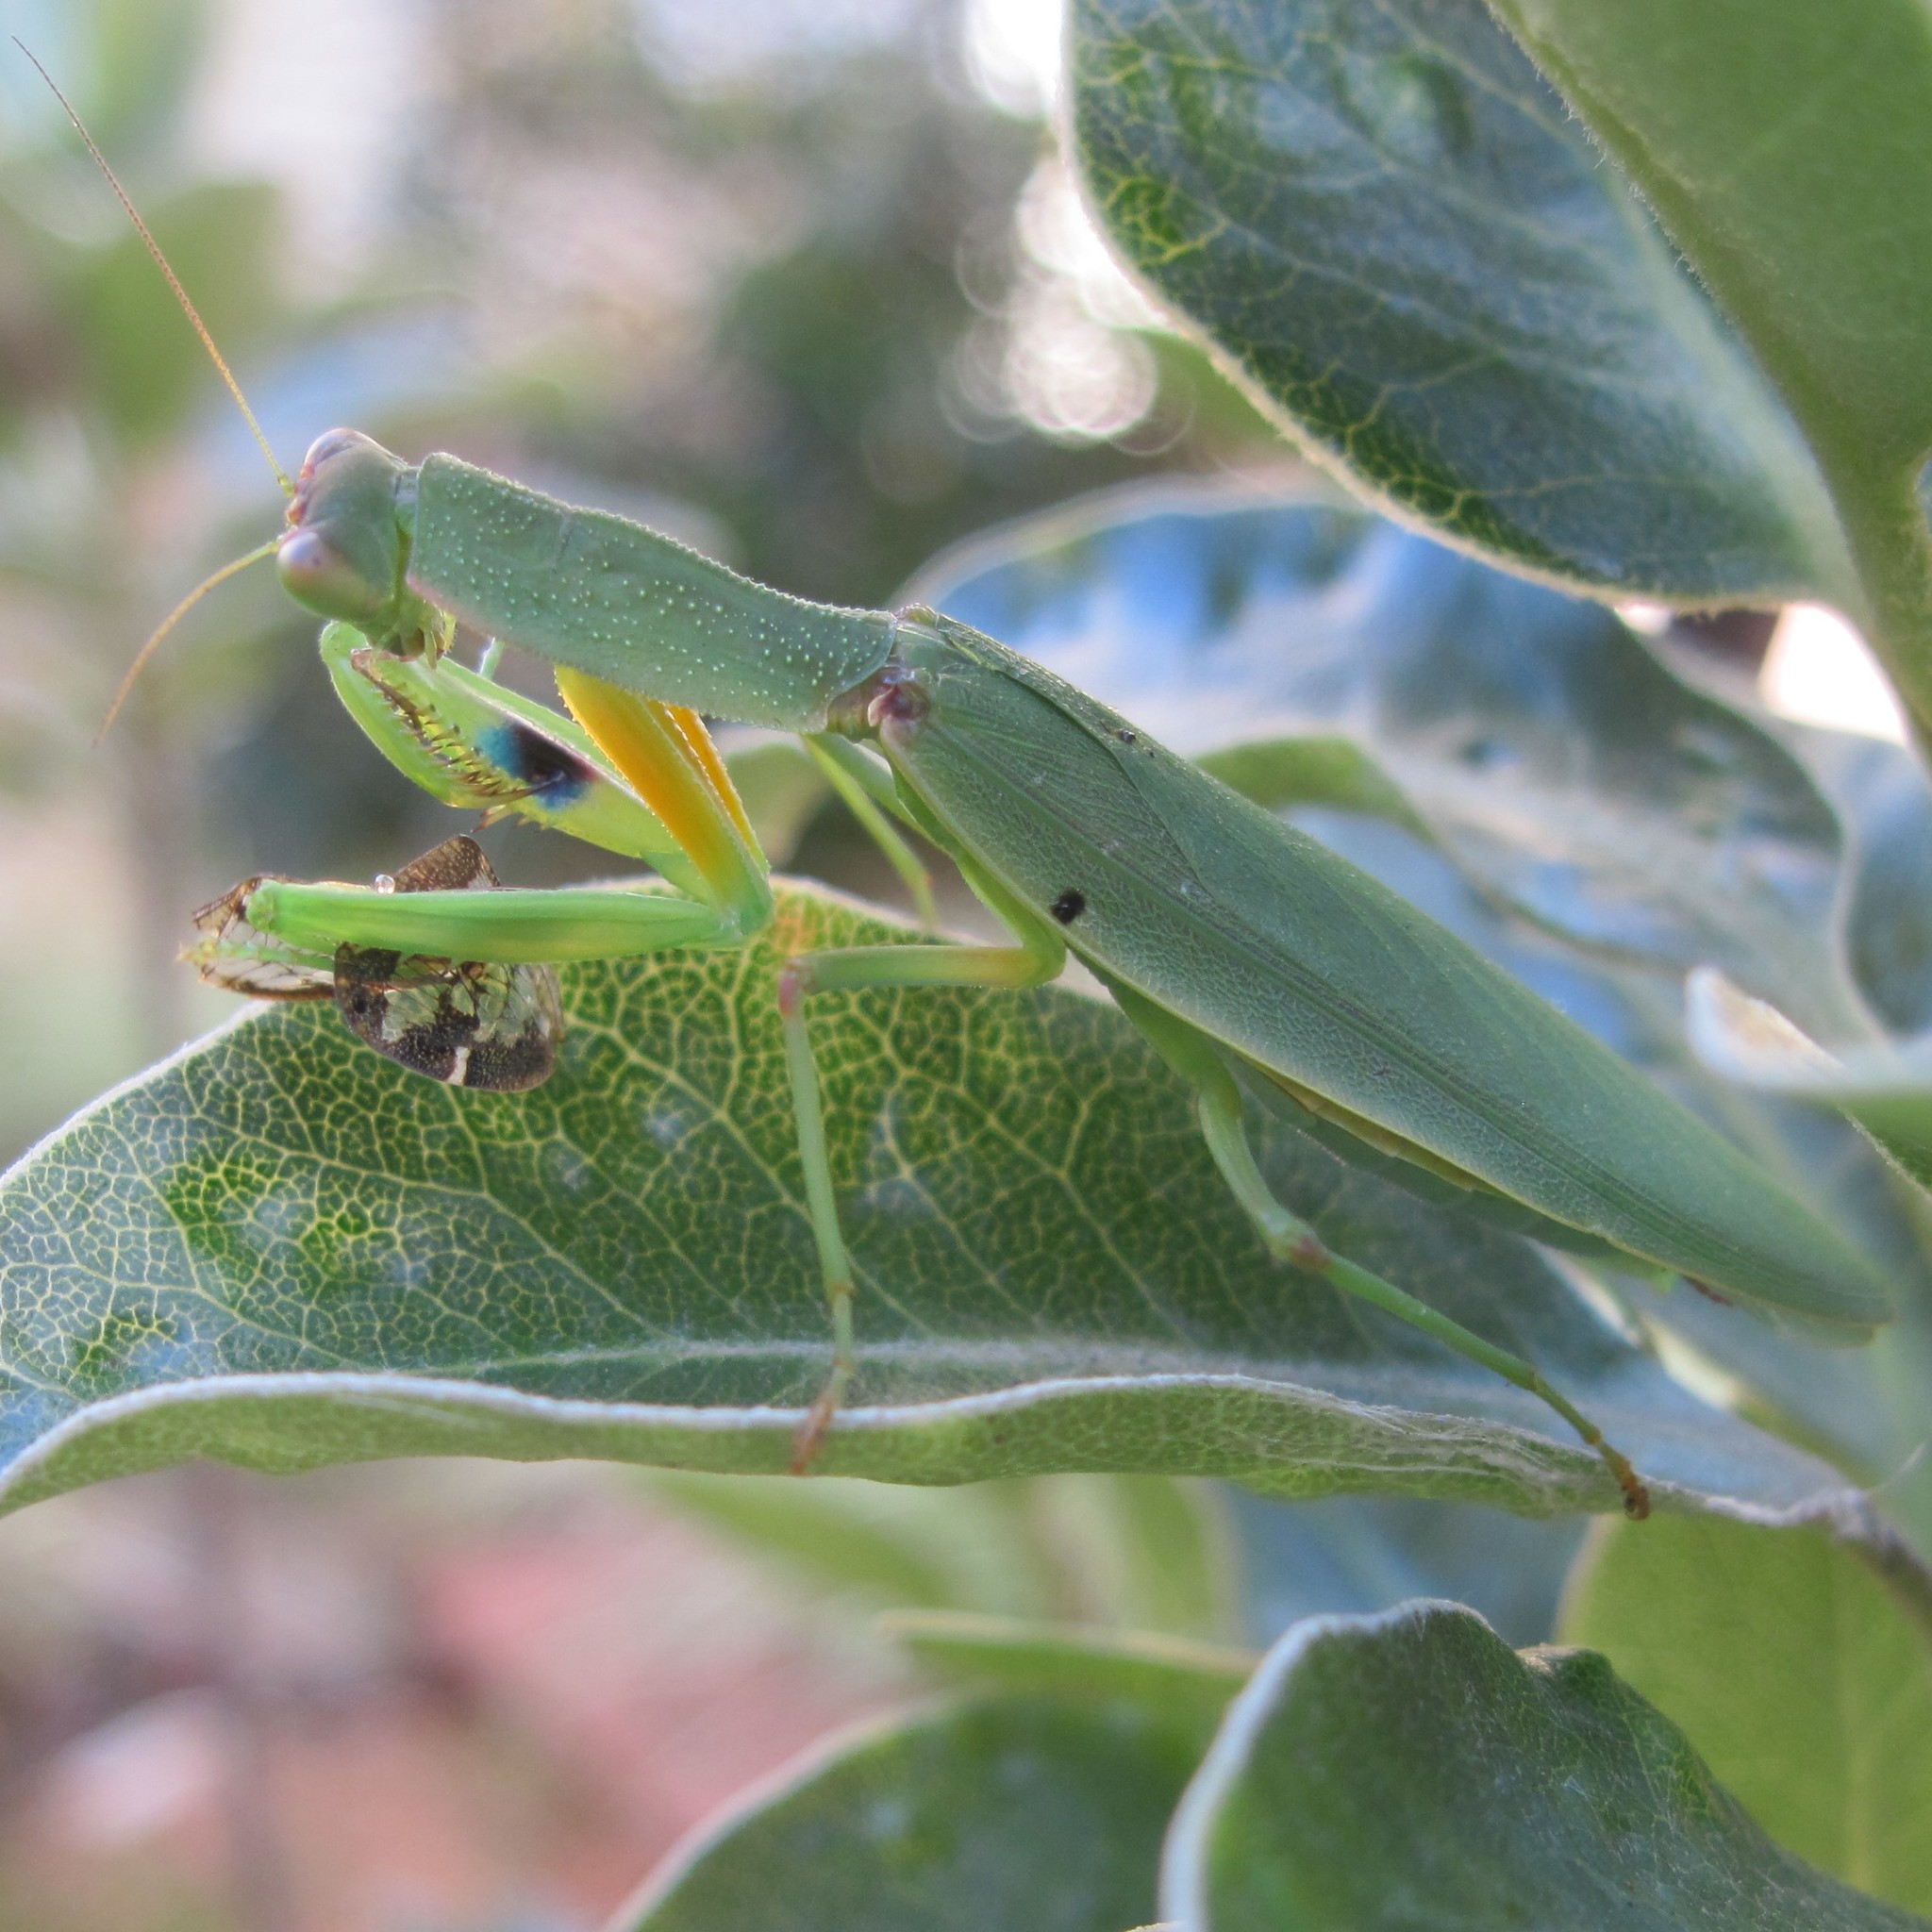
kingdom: Animalia
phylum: Arthropoda
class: Insecta
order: Mantodea
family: Mantidae
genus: Orthodera
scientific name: Orthodera novaezealandiae
